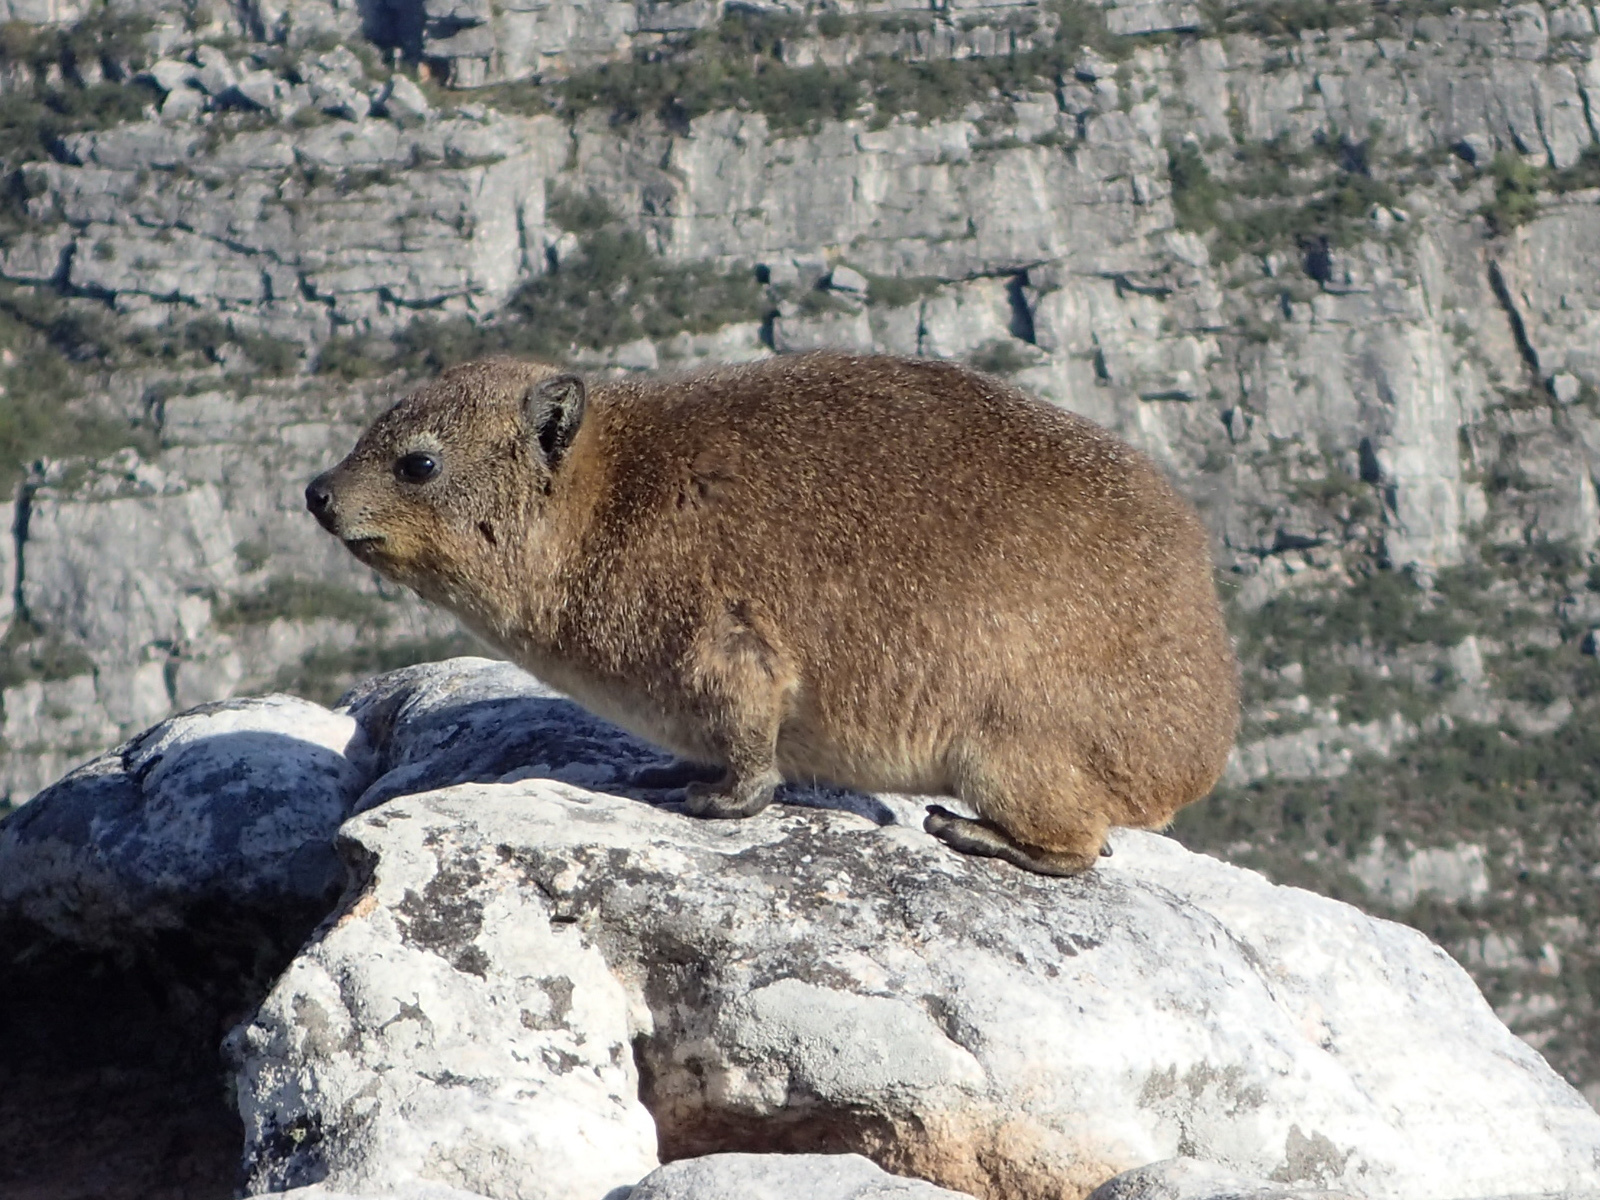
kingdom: Animalia
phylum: Chordata
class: Mammalia
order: Hyracoidea
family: Procaviidae
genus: Procavia
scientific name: Procavia capensis
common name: Rock hyrax
